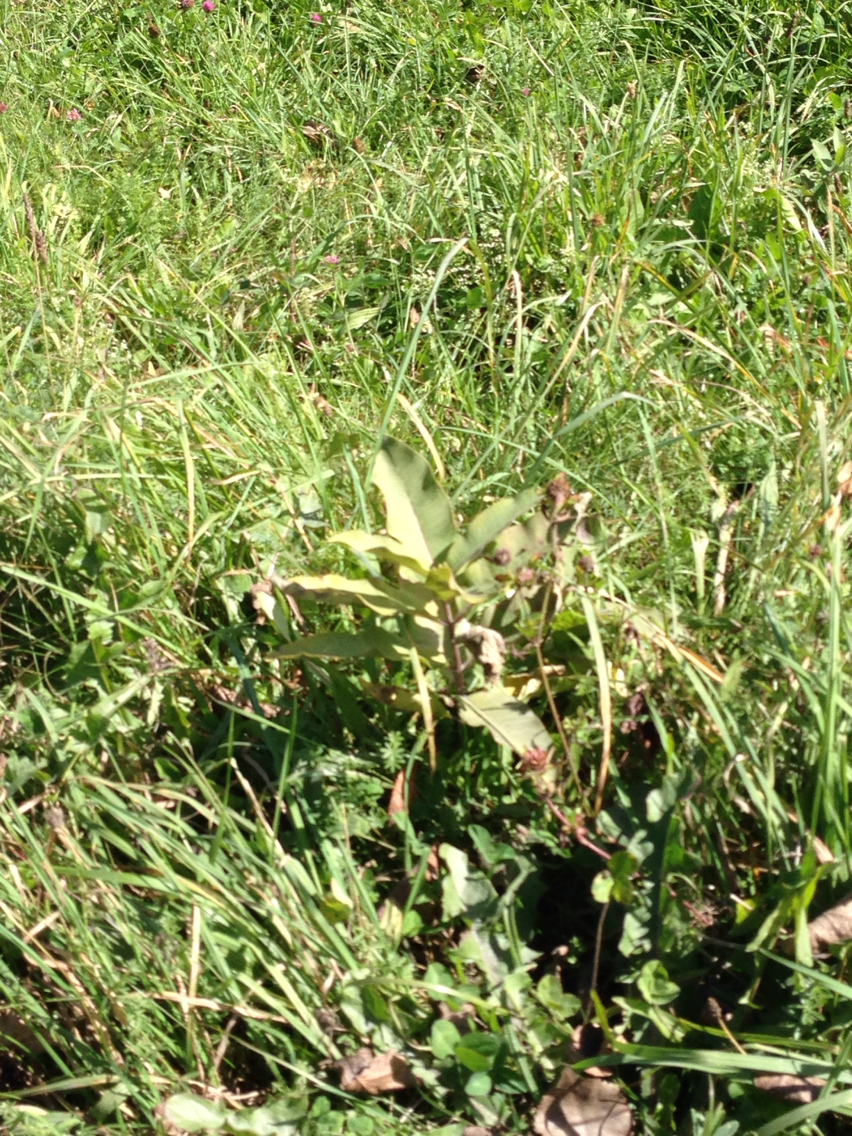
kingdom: Plantae
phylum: Tracheophyta
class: Magnoliopsida
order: Gentianales
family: Apocynaceae
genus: Asclepias
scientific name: Asclepias syriaca
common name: Common milkweed
